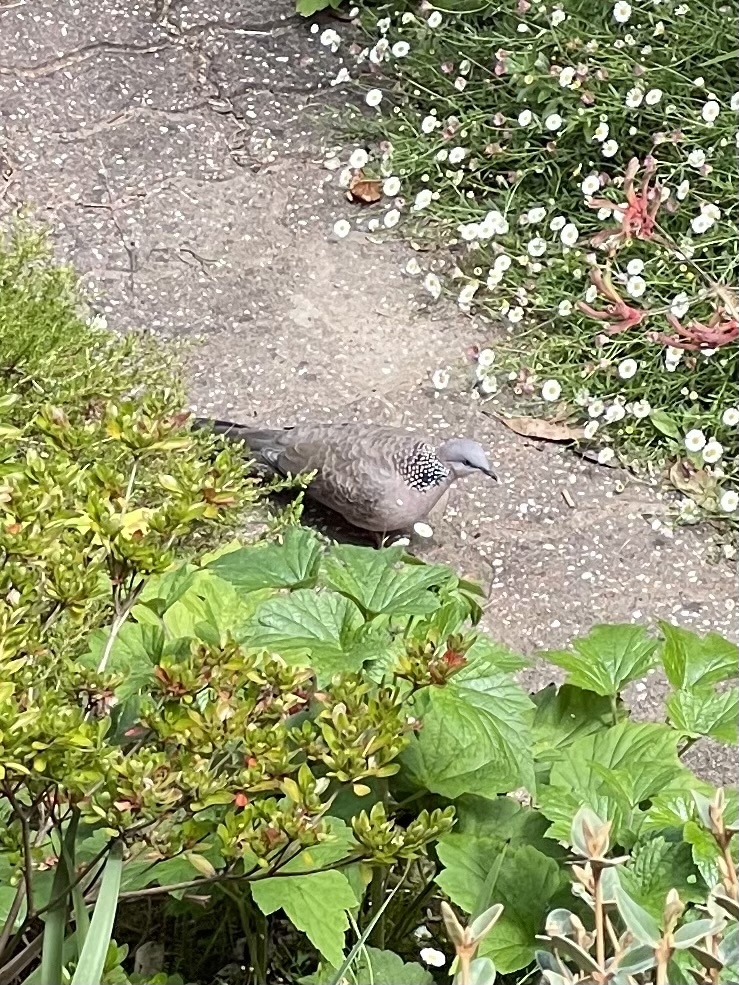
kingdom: Animalia
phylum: Chordata
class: Aves
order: Columbiformes
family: Columbidae
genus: Spilopelia
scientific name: Spilopelia chinensis
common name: Spotted dove
